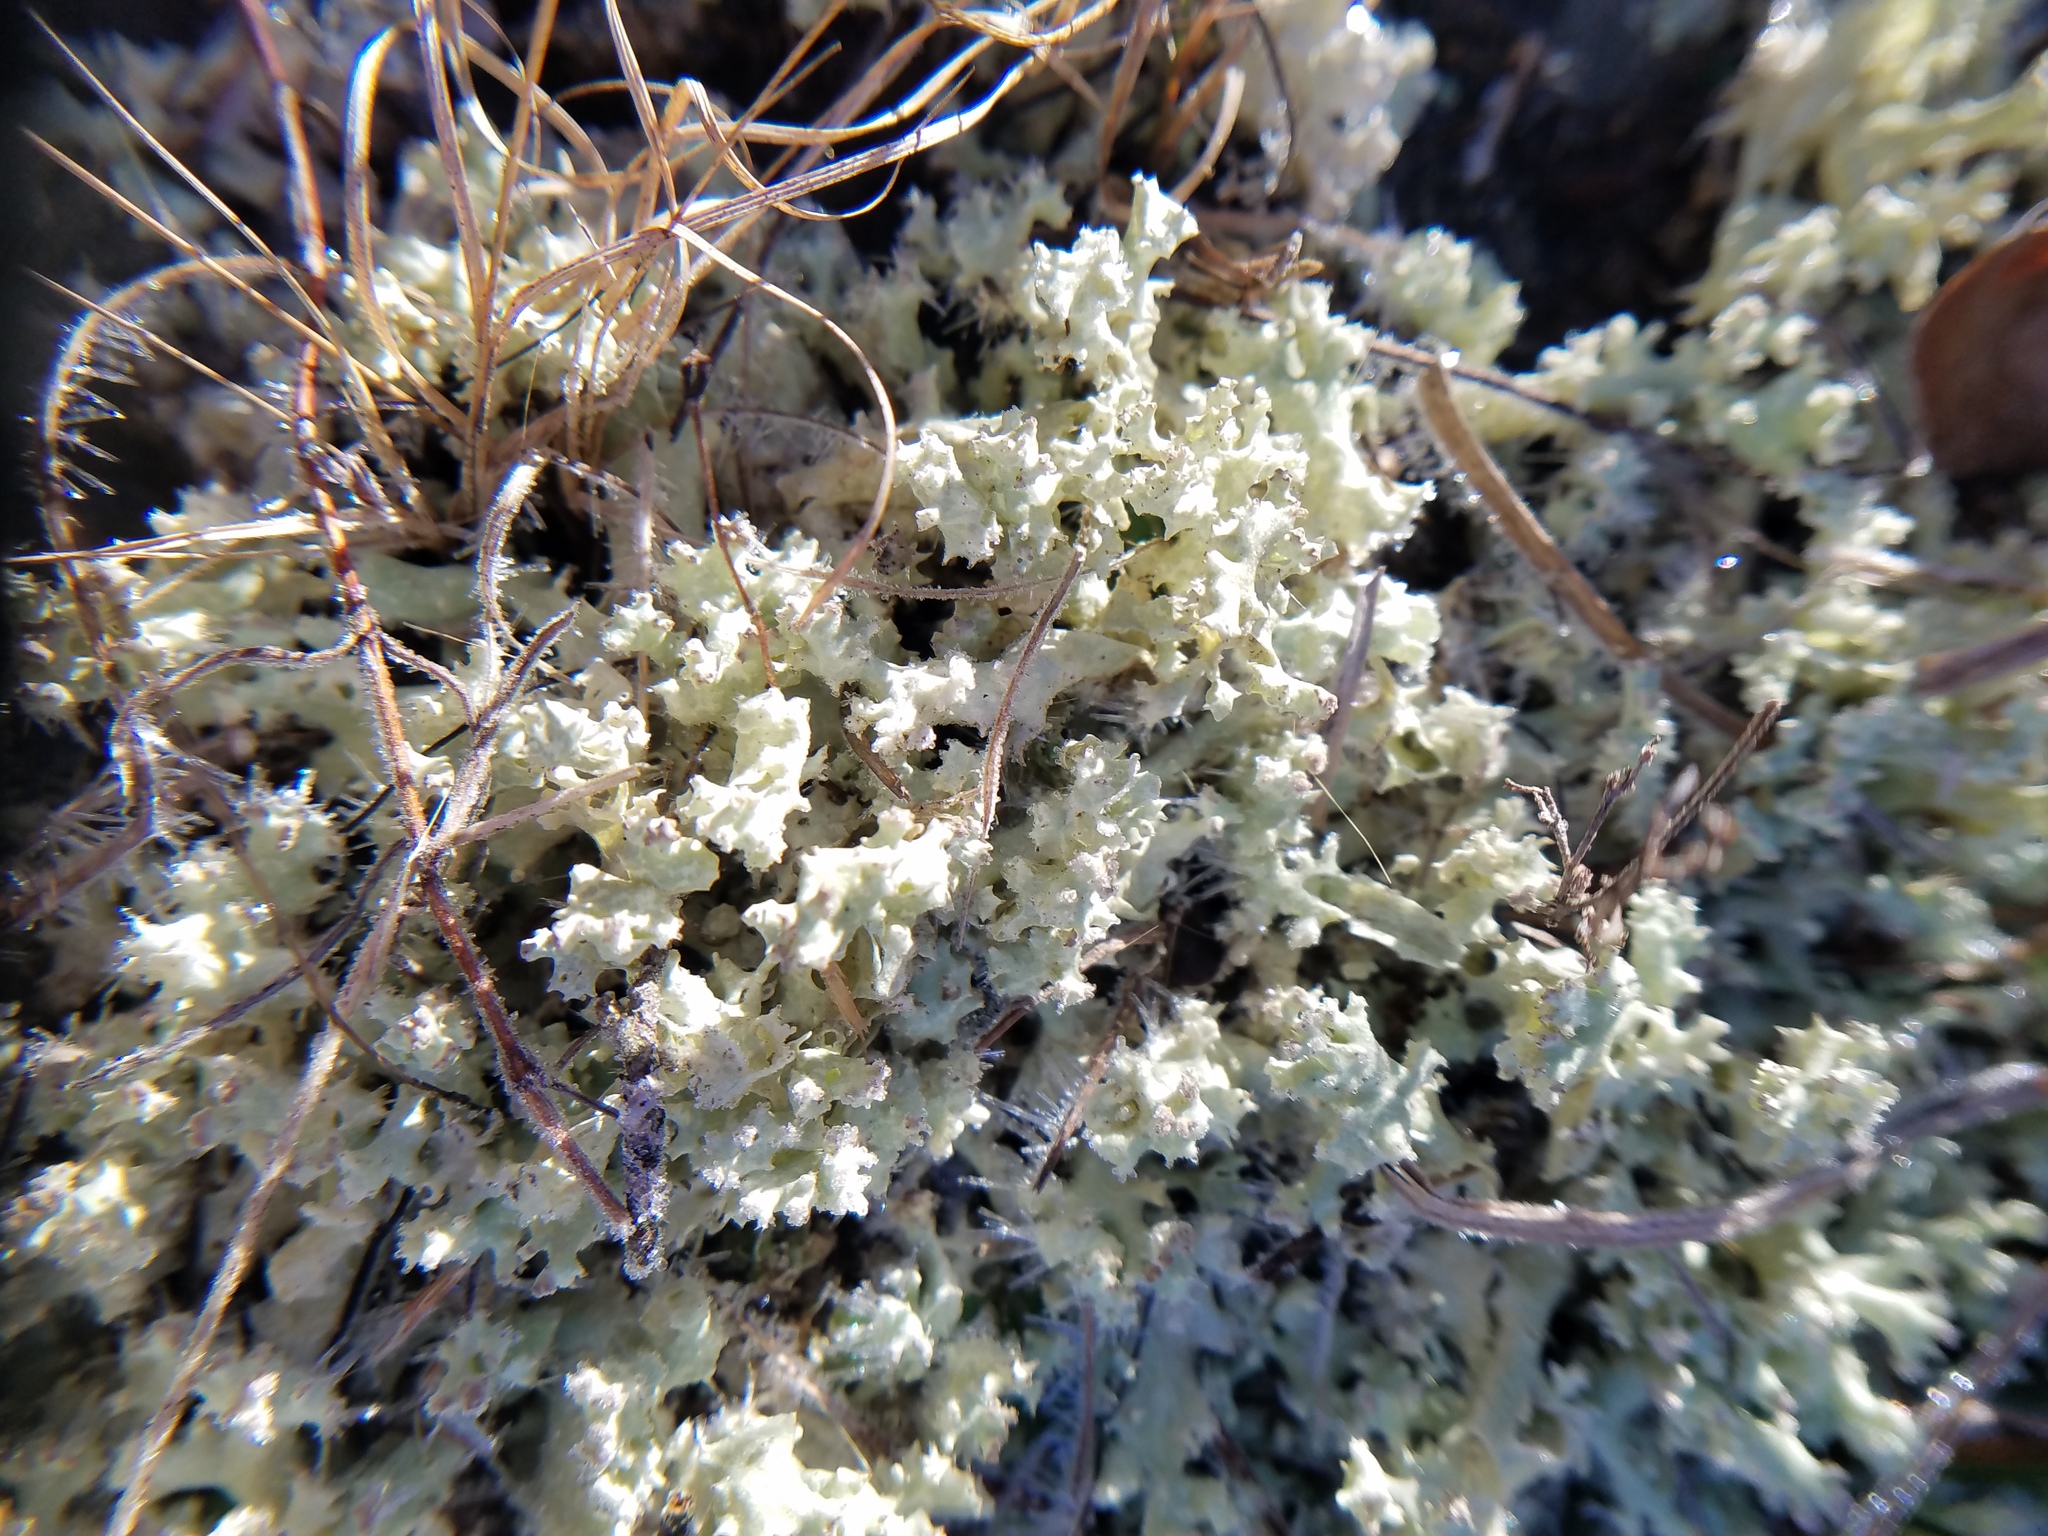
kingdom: Fungi
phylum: Ascomycota
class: Lecanoromycetes
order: Lecanorales
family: Cladoniaceae
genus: Cladonia
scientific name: Cladonia caroliniana
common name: Granite thorn
